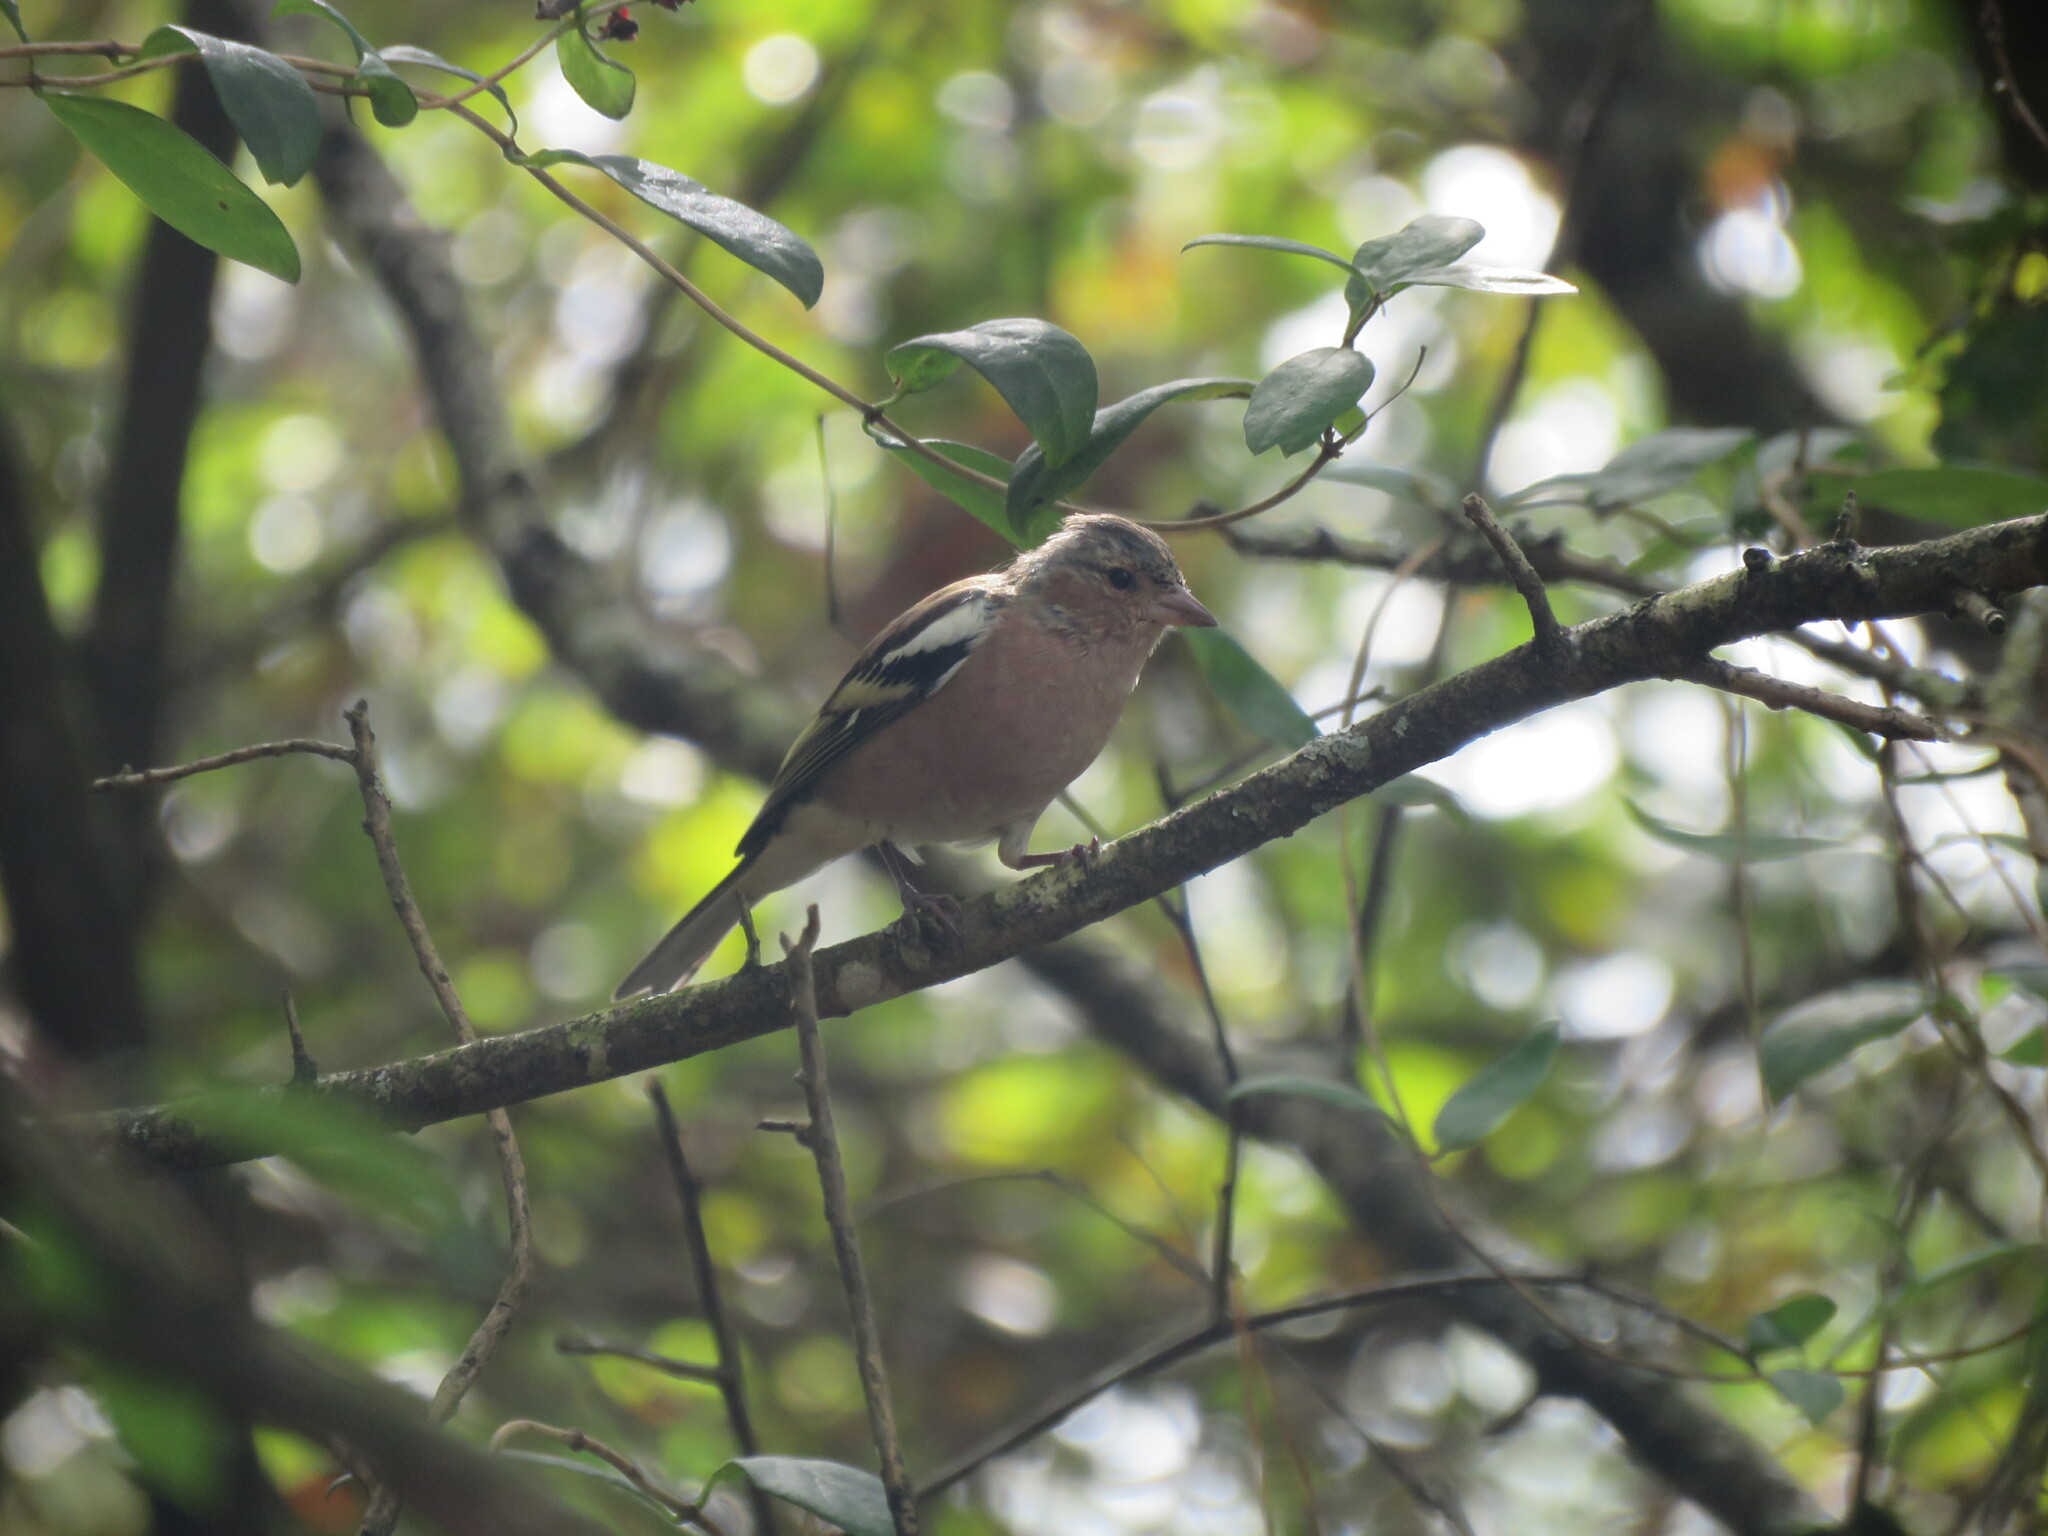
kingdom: Animalia
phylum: Chordata
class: Aves
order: Passeriformes
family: Fringillidae
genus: Fringilla
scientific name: Fringilla coelebs
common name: Common chaffinch
